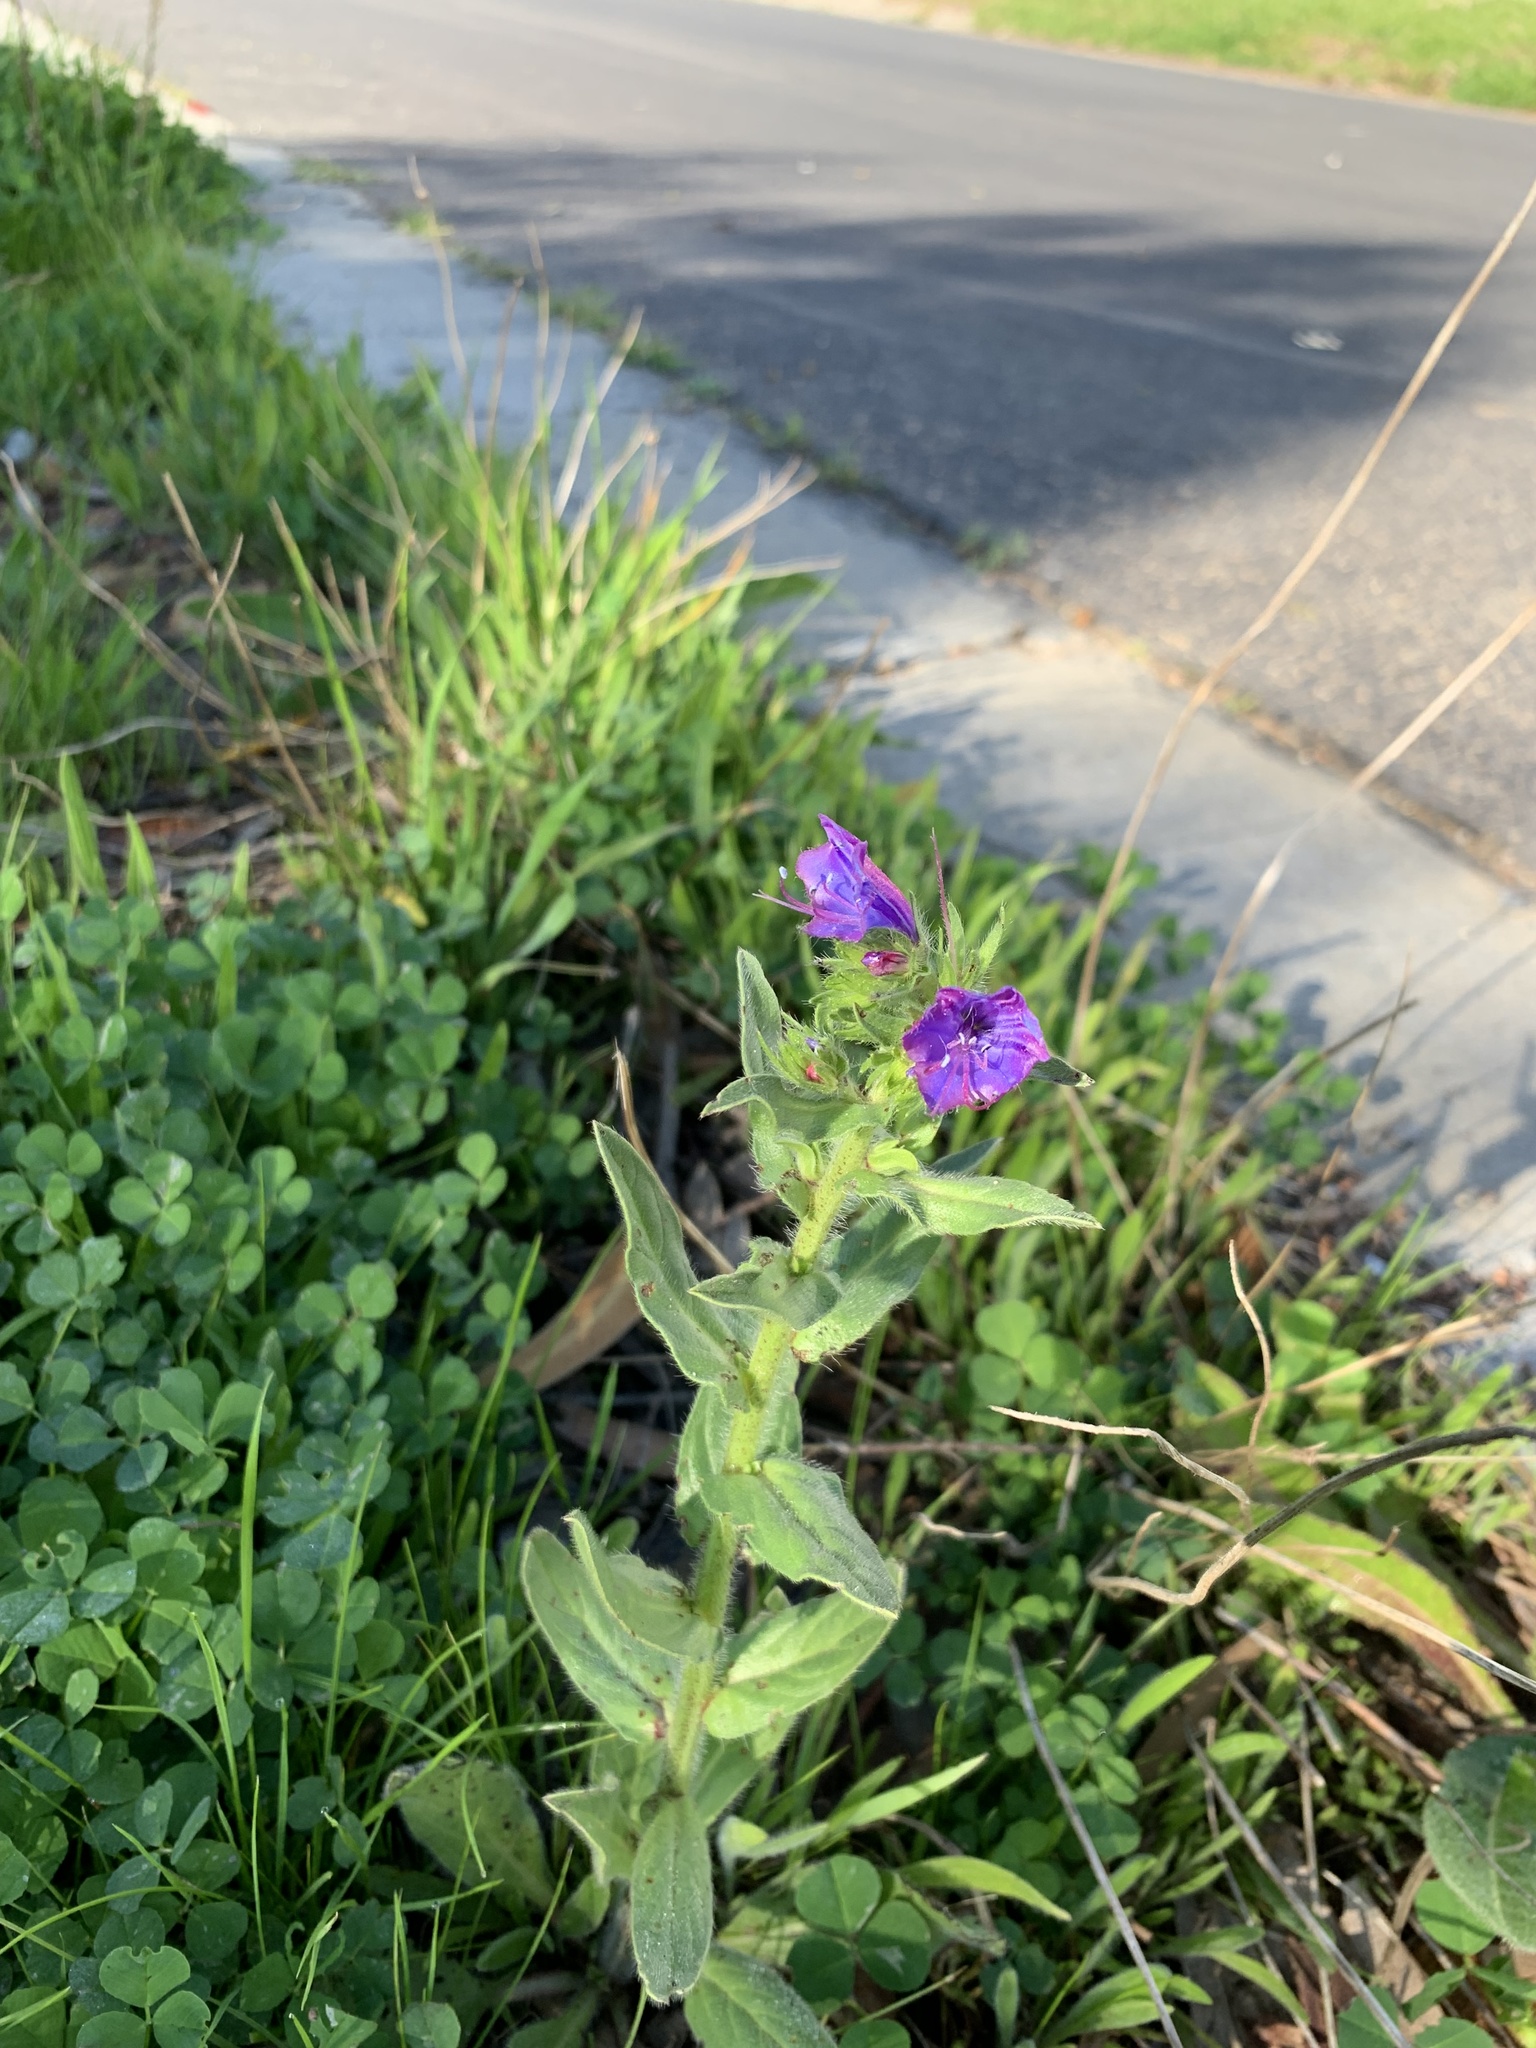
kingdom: Plantae
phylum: Tracheophyta
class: Magnoliopsida
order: Boraginales
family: Boraginaceae
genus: Echium
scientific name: Echium plantagineum
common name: Purple viper's-bugloss
